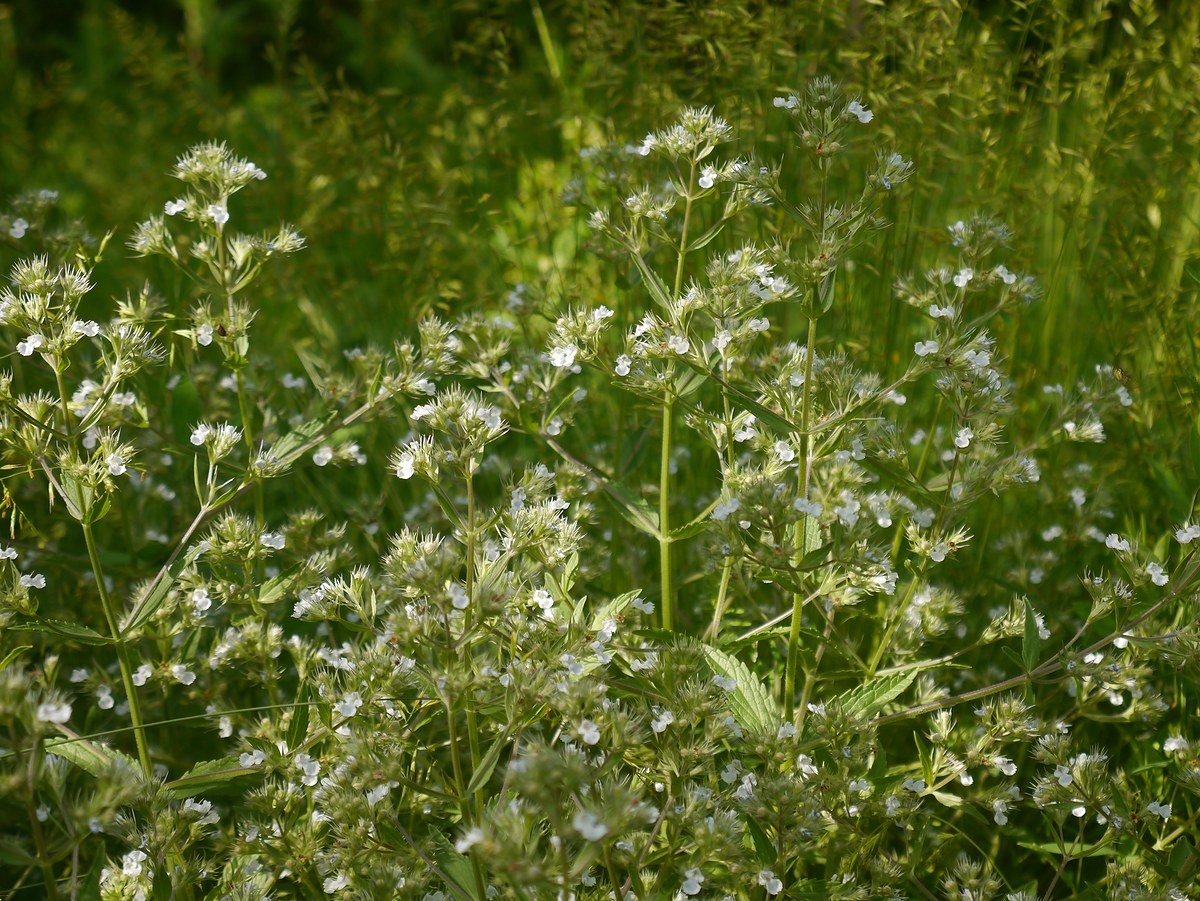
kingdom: Plantae
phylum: Tracheophyta
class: Magnoliopsida
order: Lamiales
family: Lamiaceae
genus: Nepeta
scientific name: Nepeta
